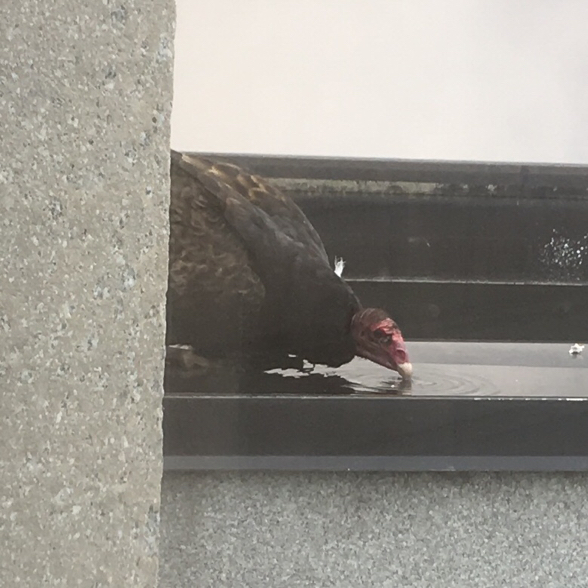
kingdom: Animalia
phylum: Chordata
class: Aves
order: Accipitriformes
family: Cathartidae
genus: Cathartes
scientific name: Cathartes aura
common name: Turkey vulture
